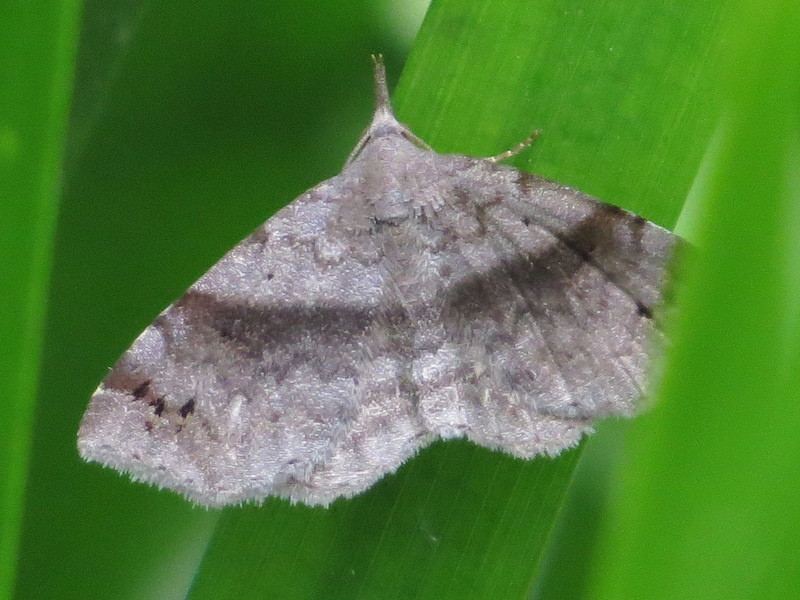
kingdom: Animalia
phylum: Arthropoda
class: Insecta
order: Lepidoptera
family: Erebidae
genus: Spargaloma
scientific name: Spargaloma sexpunctata
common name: Six-spotted gray
